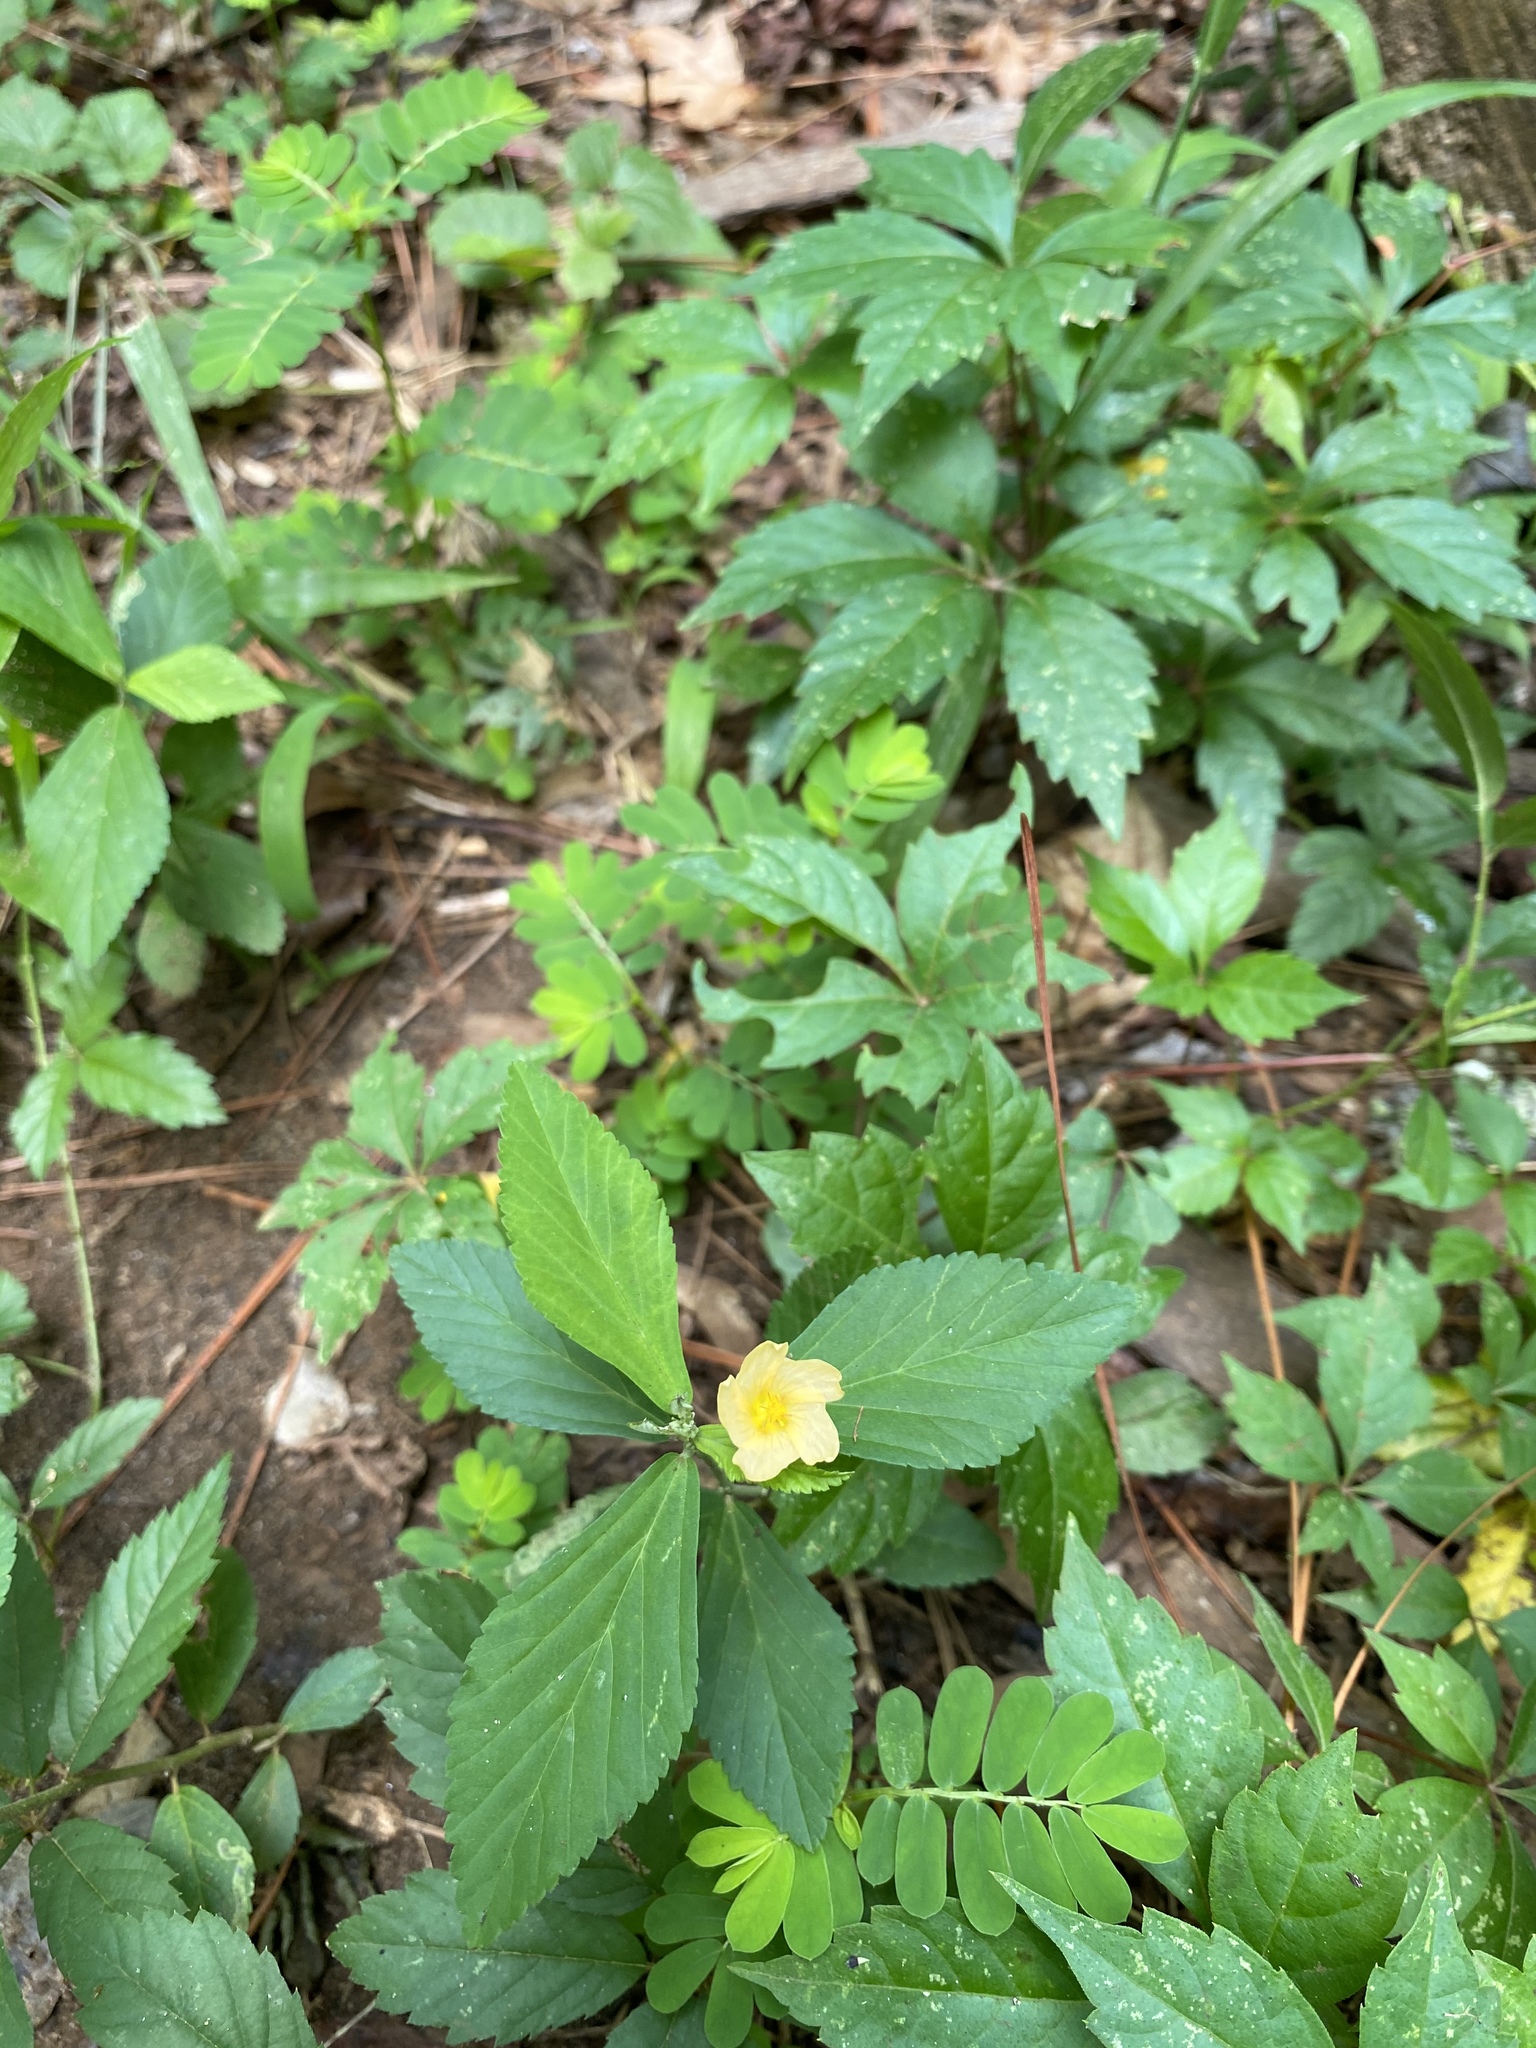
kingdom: Plantae
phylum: Tracheophyta
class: Magnoliopsida
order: Malvales
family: Malvaceae
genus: Sida
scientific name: Sida rhombifolia
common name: Queensland-hemp
